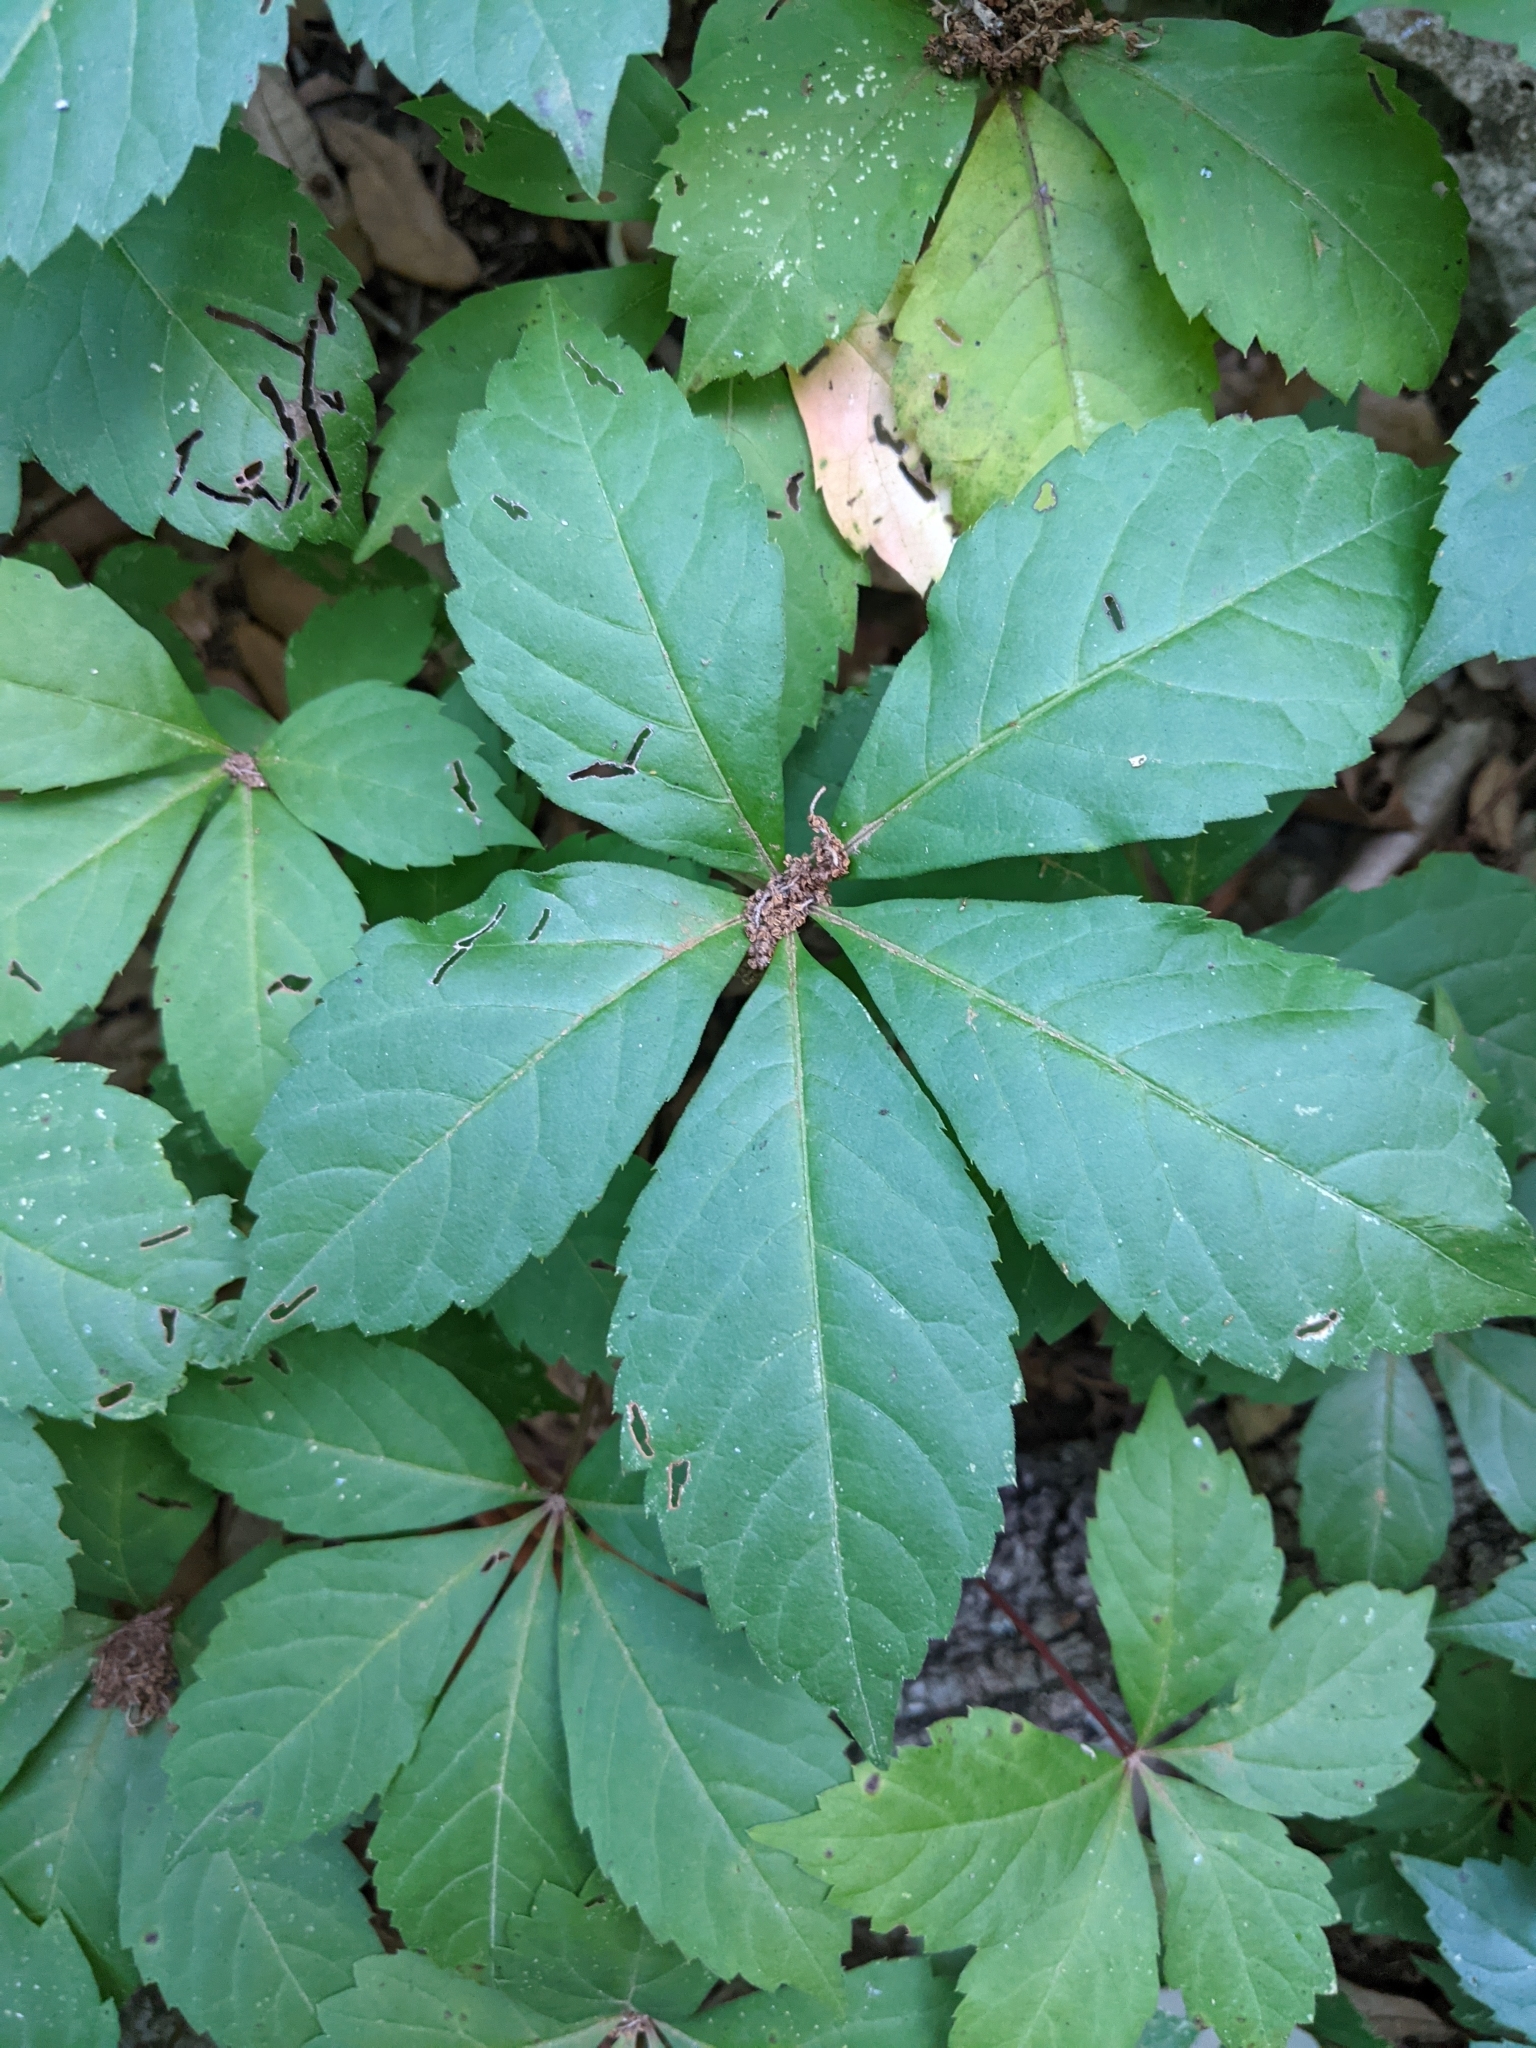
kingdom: Plantae
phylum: Tracheophyta
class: Magnoliopsida
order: Vitales
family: Vitaceae
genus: Parthenocissus
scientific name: Parthenocissus quinquefolia
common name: Virginia-creeper
